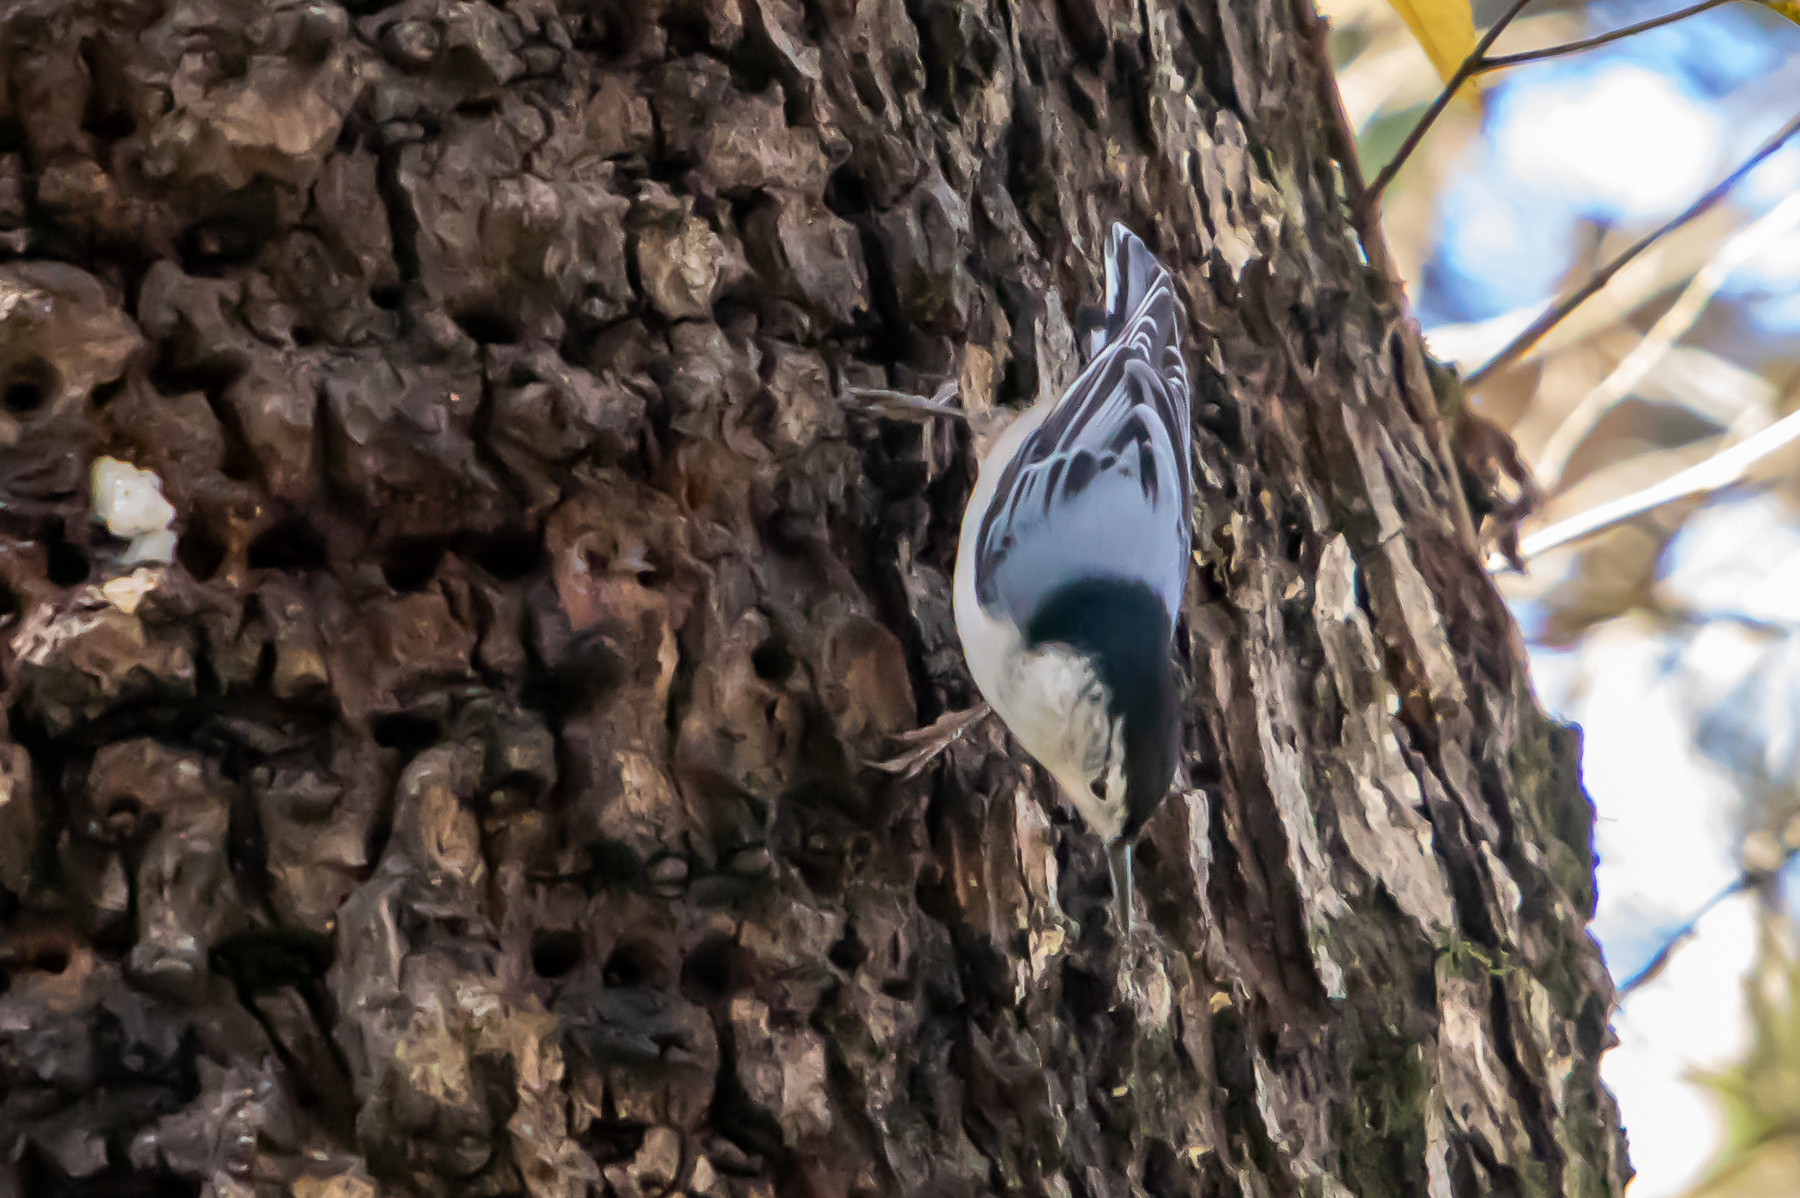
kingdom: Animalia
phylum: Chordata
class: Aves
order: Passeriformes
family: Sittidae
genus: Sitta
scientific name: Sitta carolinensis
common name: White-breasted nuthatch
